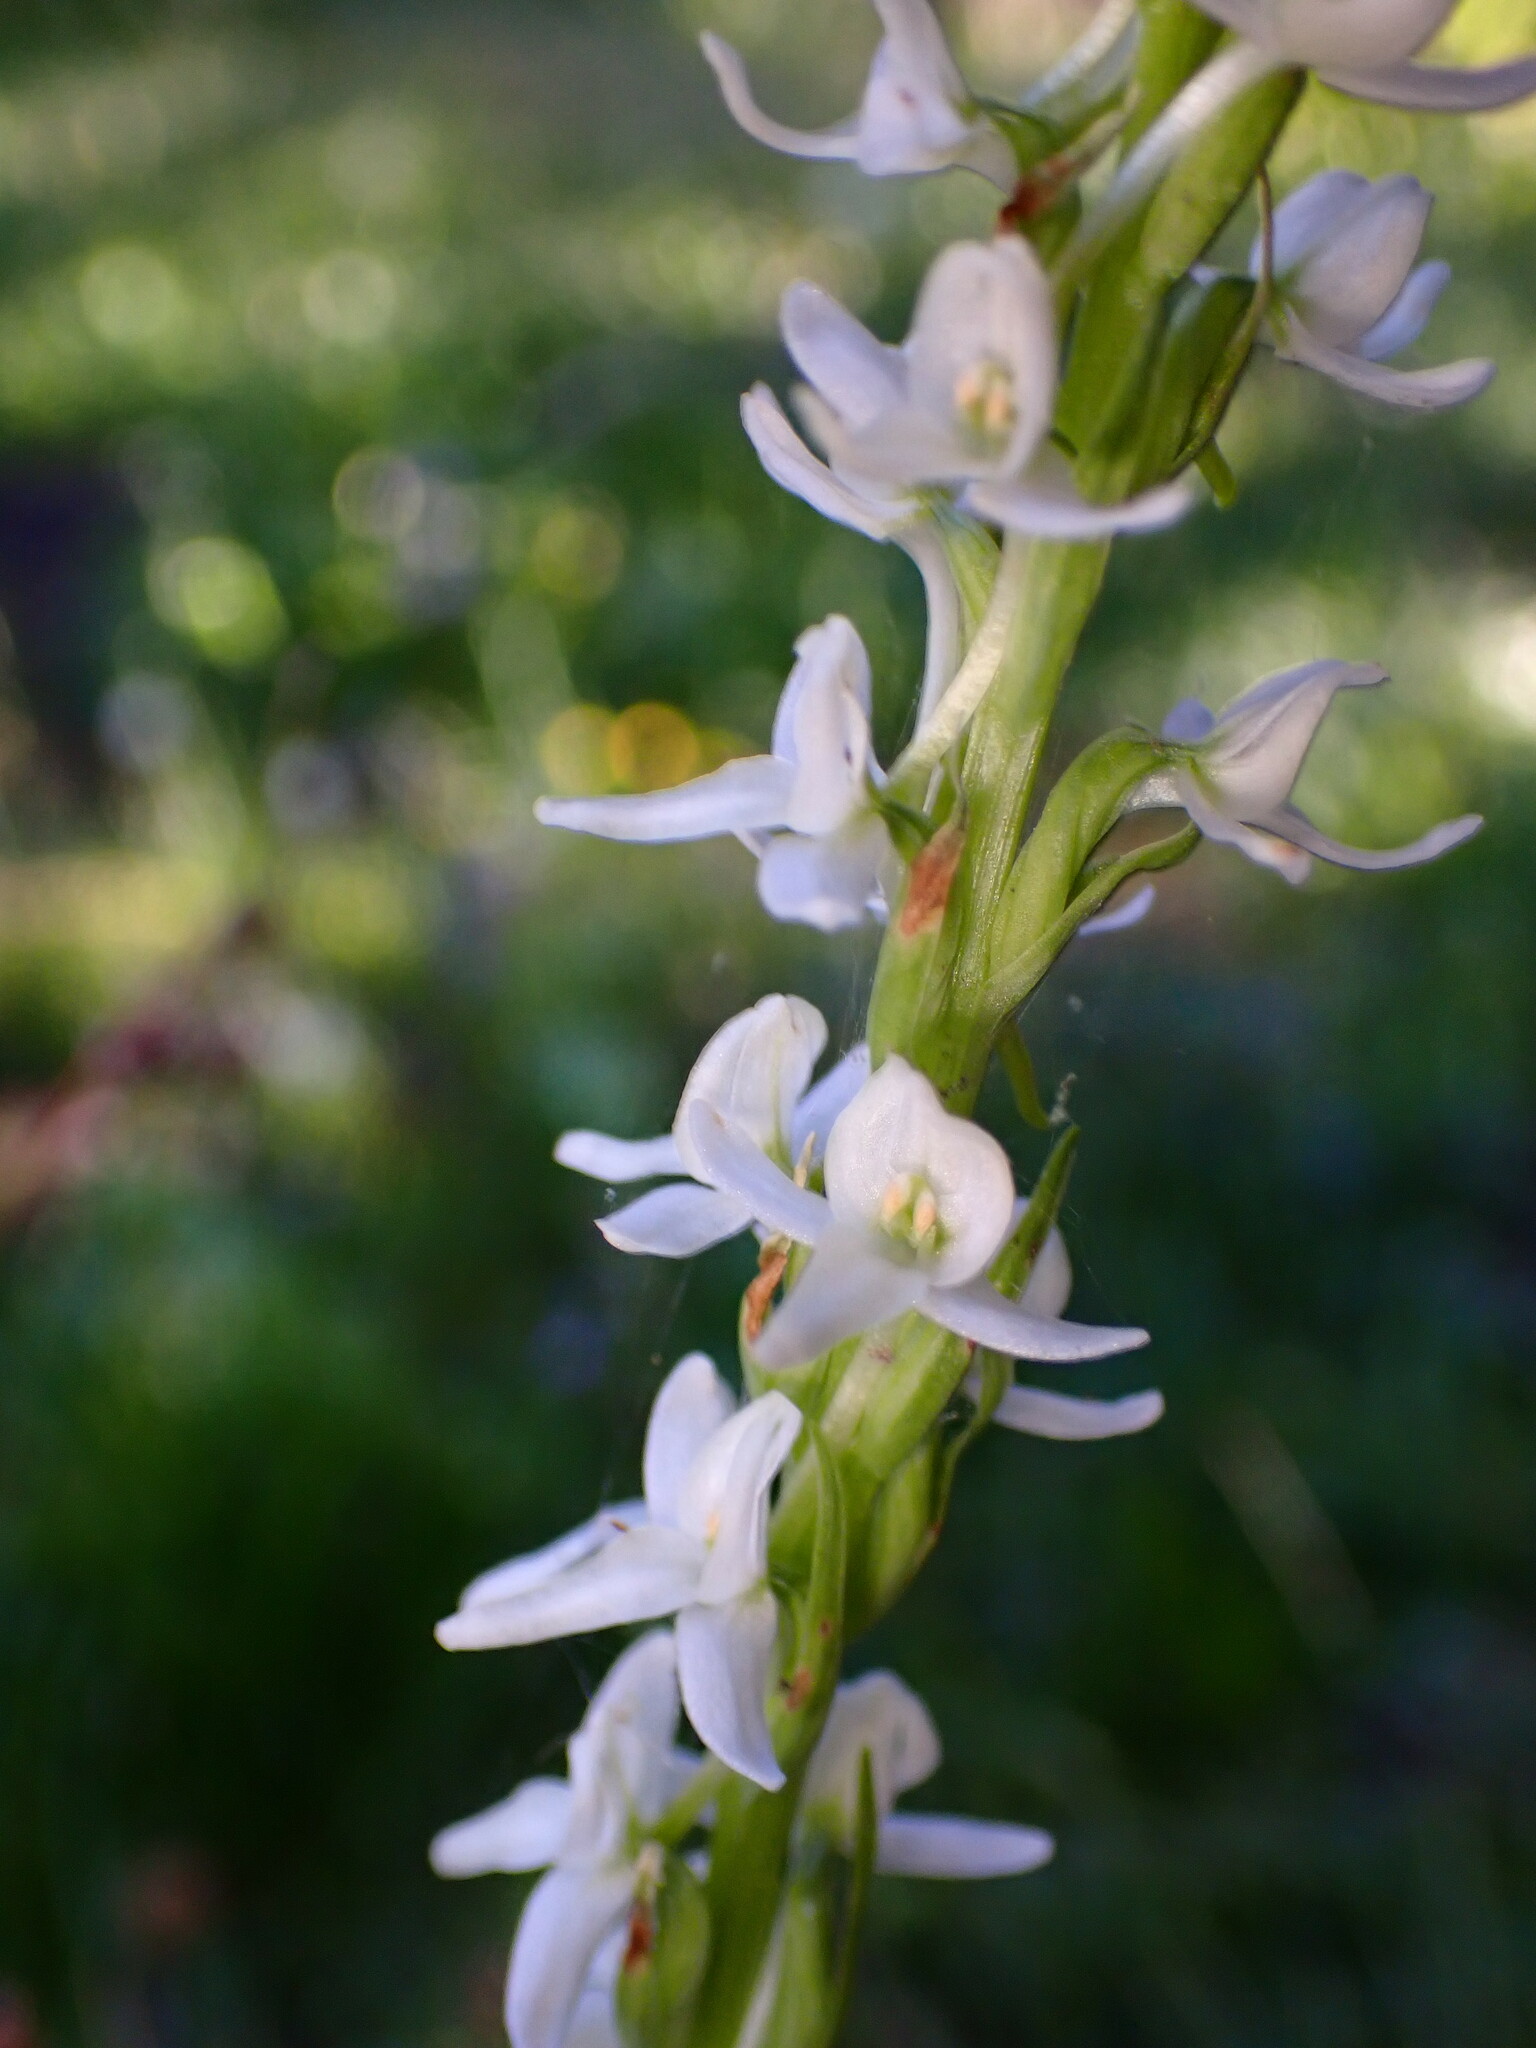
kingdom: Plantae
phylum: Tracheophyta
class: Liliopsida
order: Asparagales
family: Orchidaceae
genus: Platanthera
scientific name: Platanthera dilatata
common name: Bog candles
